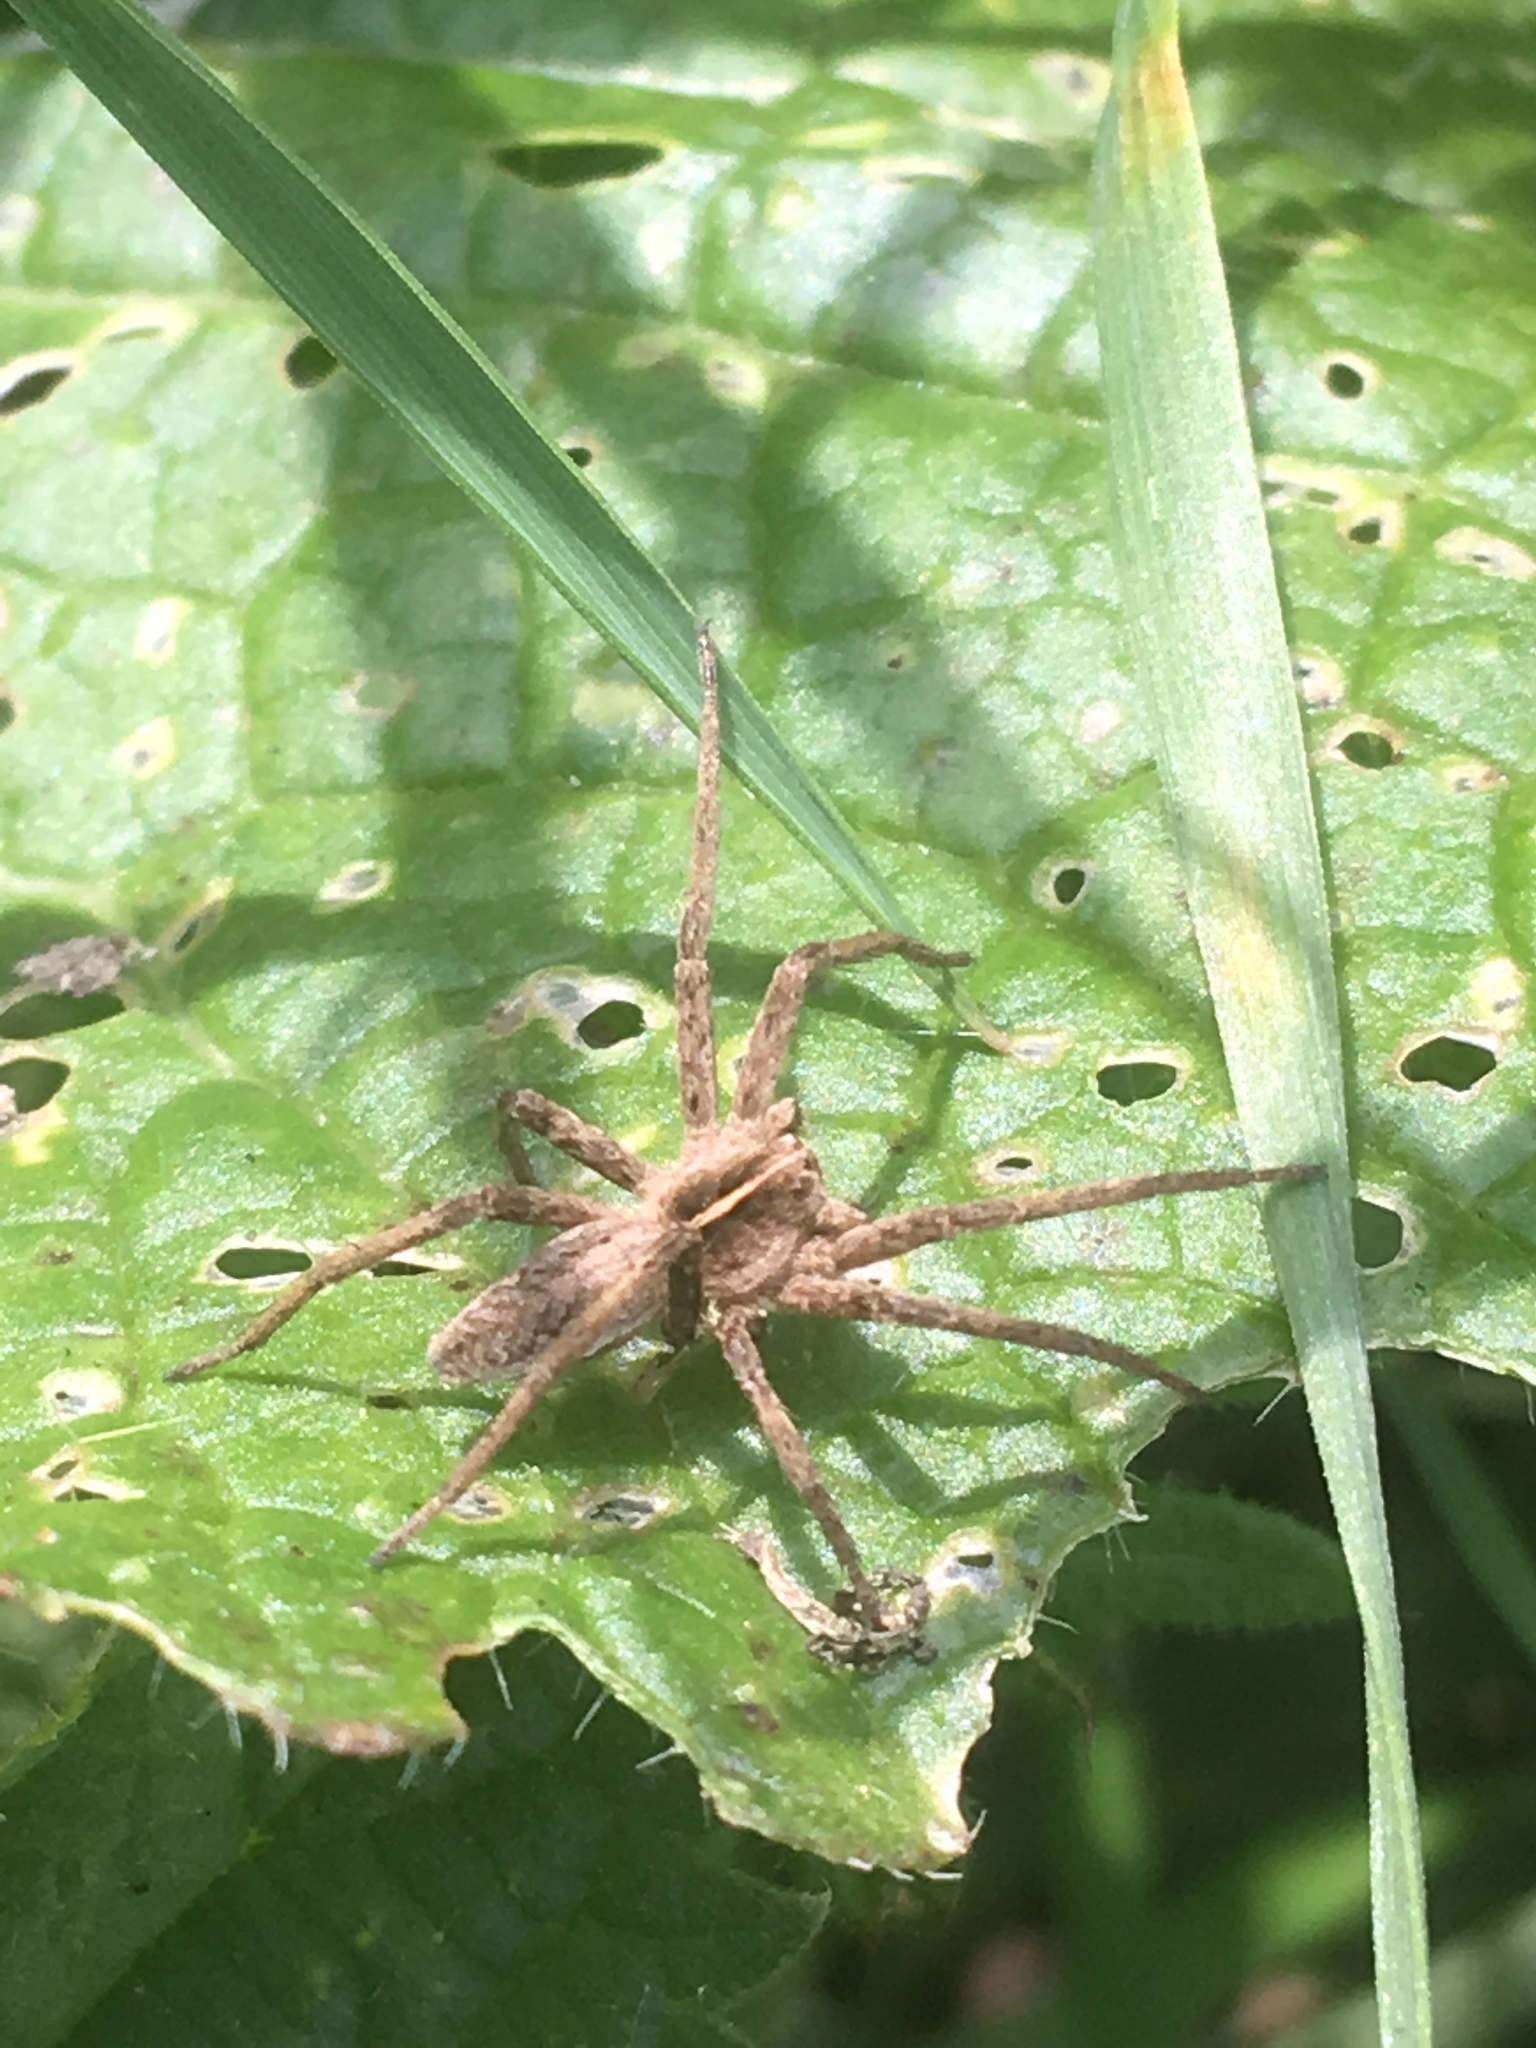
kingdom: Animalia
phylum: Arthropoda
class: Arachnida
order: Araneae
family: Pisauridae
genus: Pisaura
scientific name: Pisaura mirabilis
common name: Tent spider
